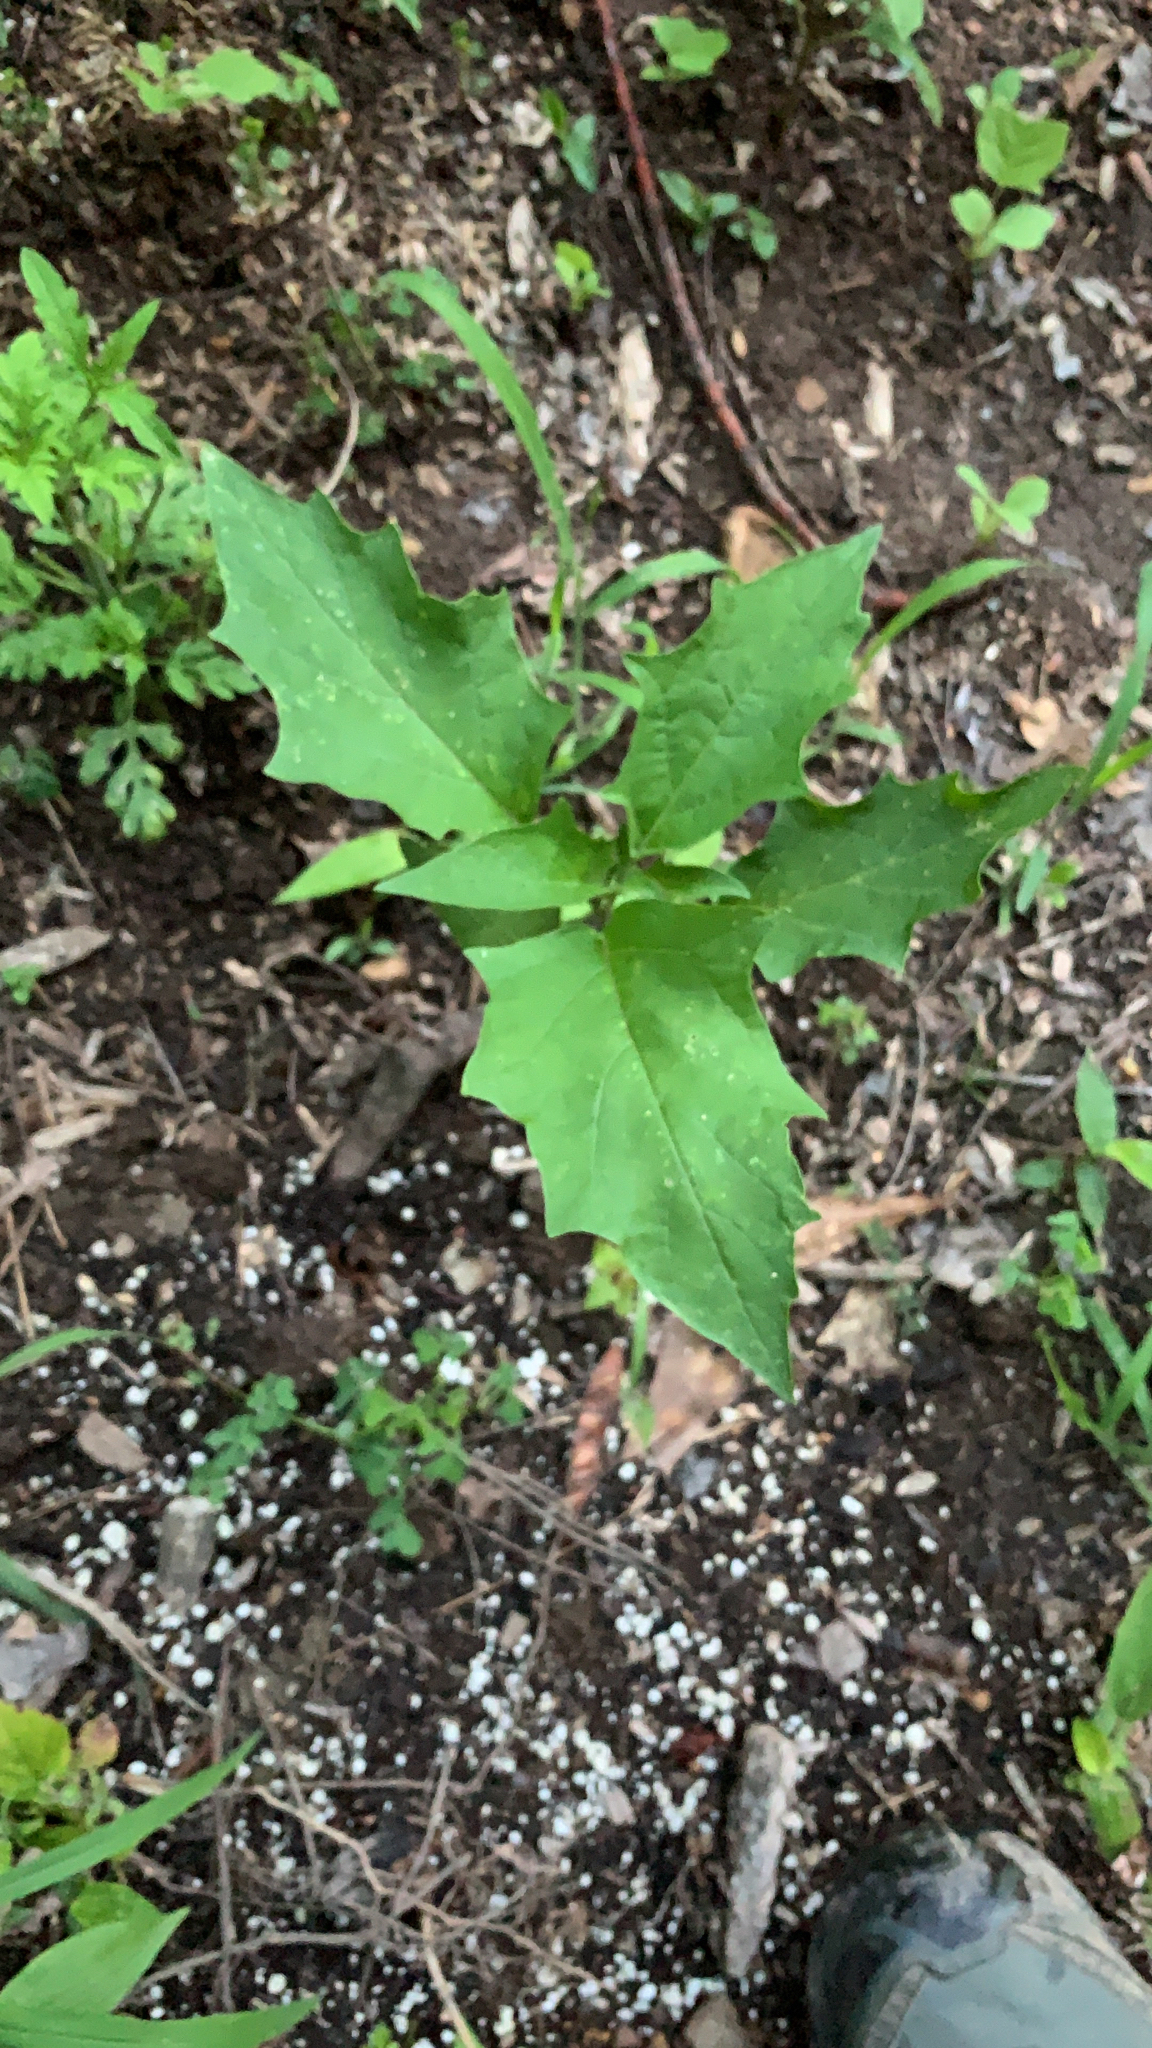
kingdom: Plantae
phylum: Tracheophyta
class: Magnoliopsida
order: Solanales
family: Solanaceae
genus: Datura
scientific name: Datura stramonium
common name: Thorn-apple
